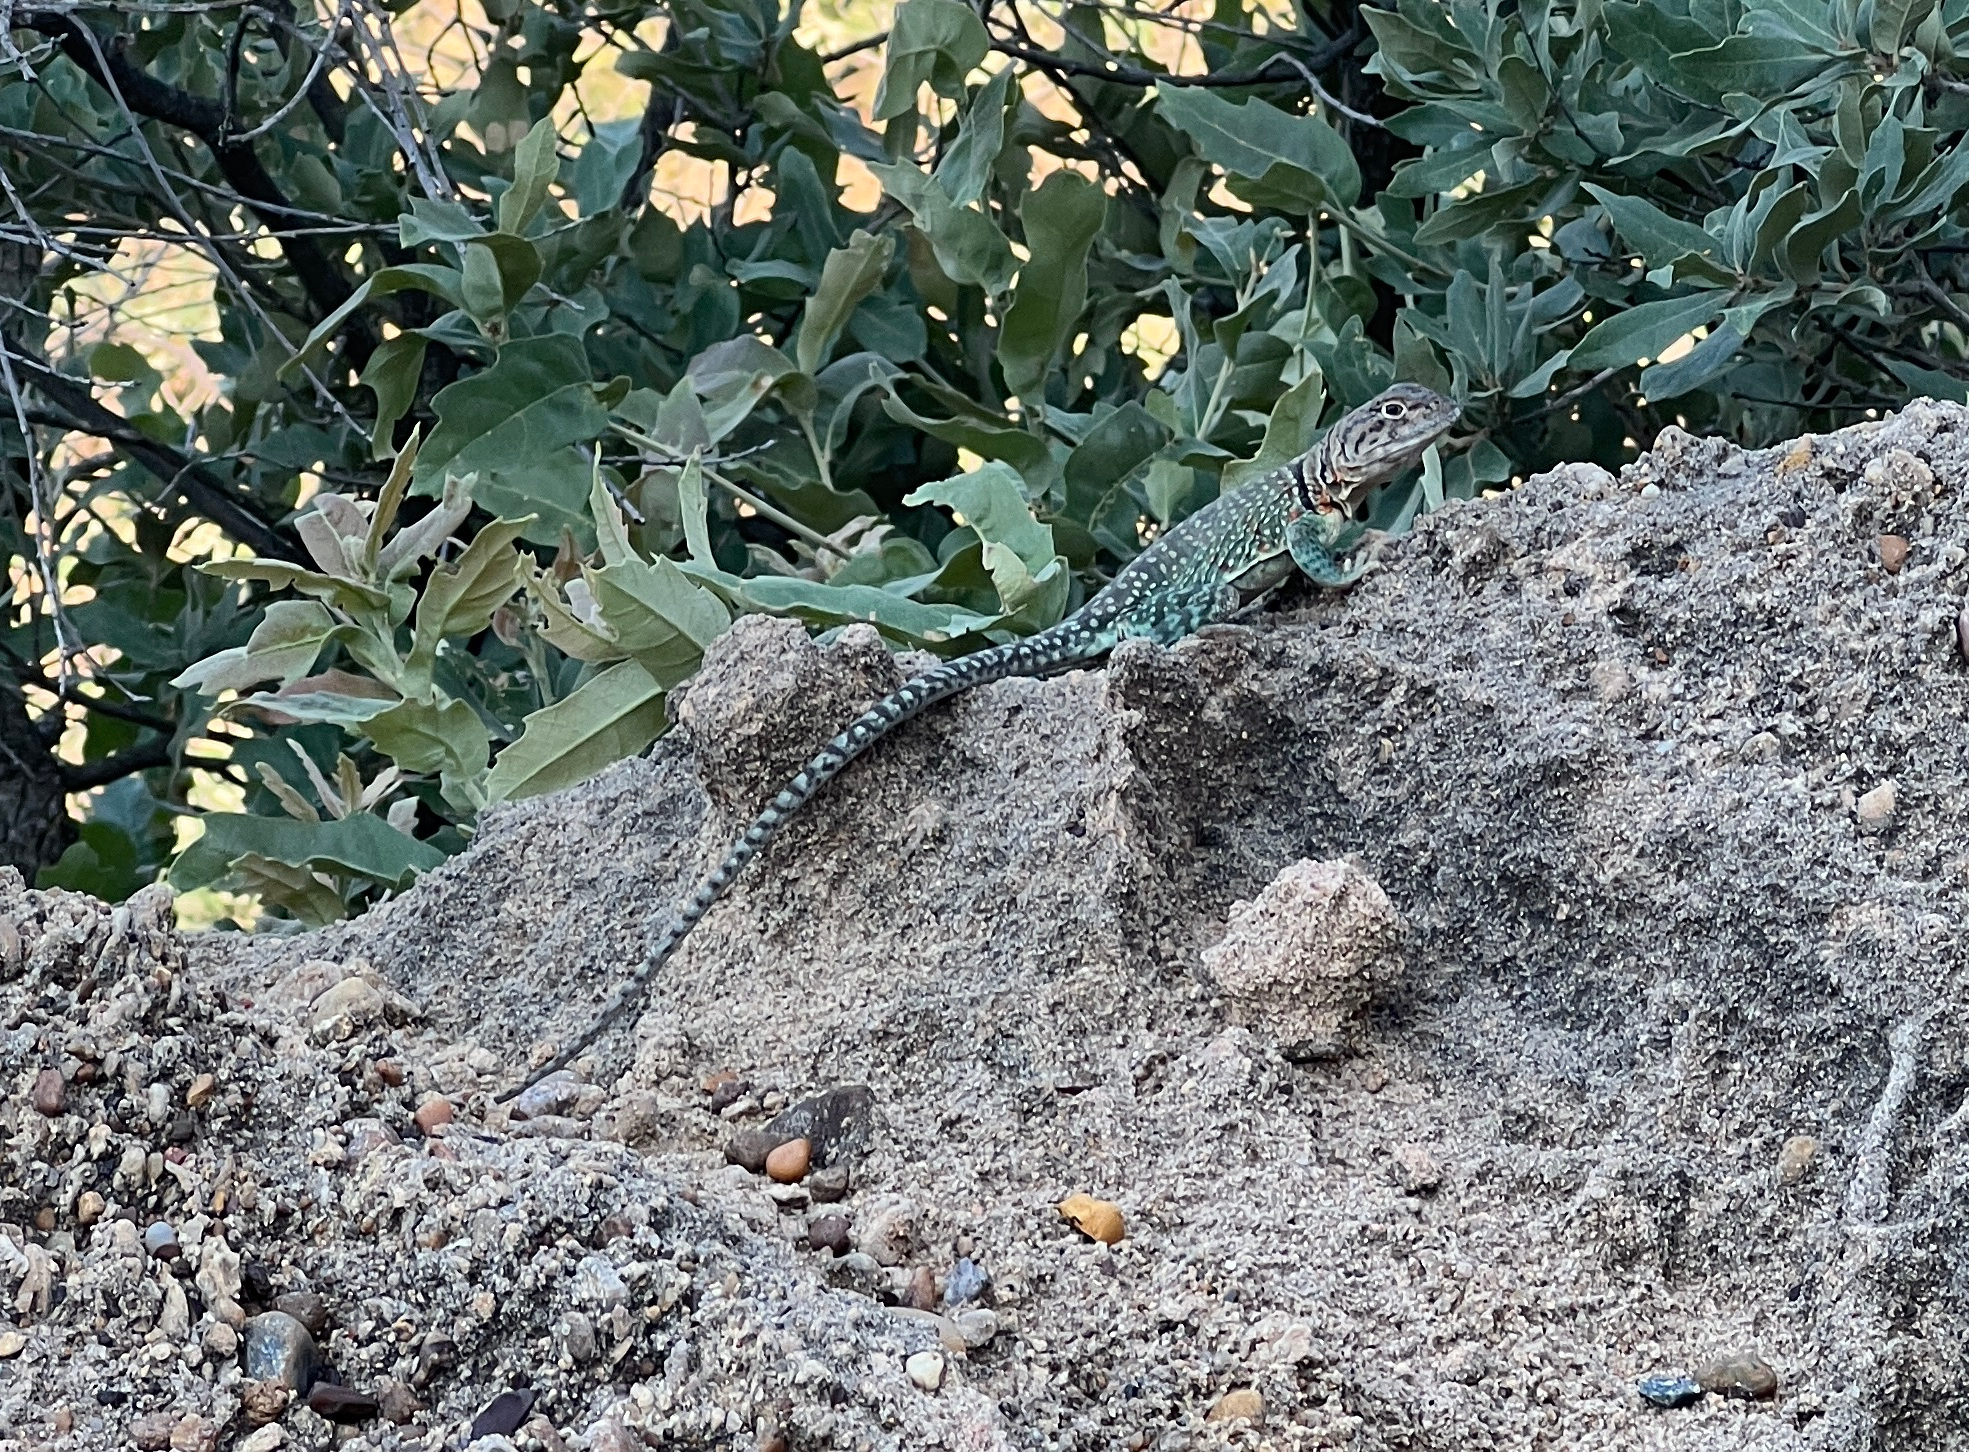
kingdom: Animalia
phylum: Chordata
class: Squamata
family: Crotaphytidae
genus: Crotaphytus
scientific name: Crotaphytus collaris
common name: Collared lizard
